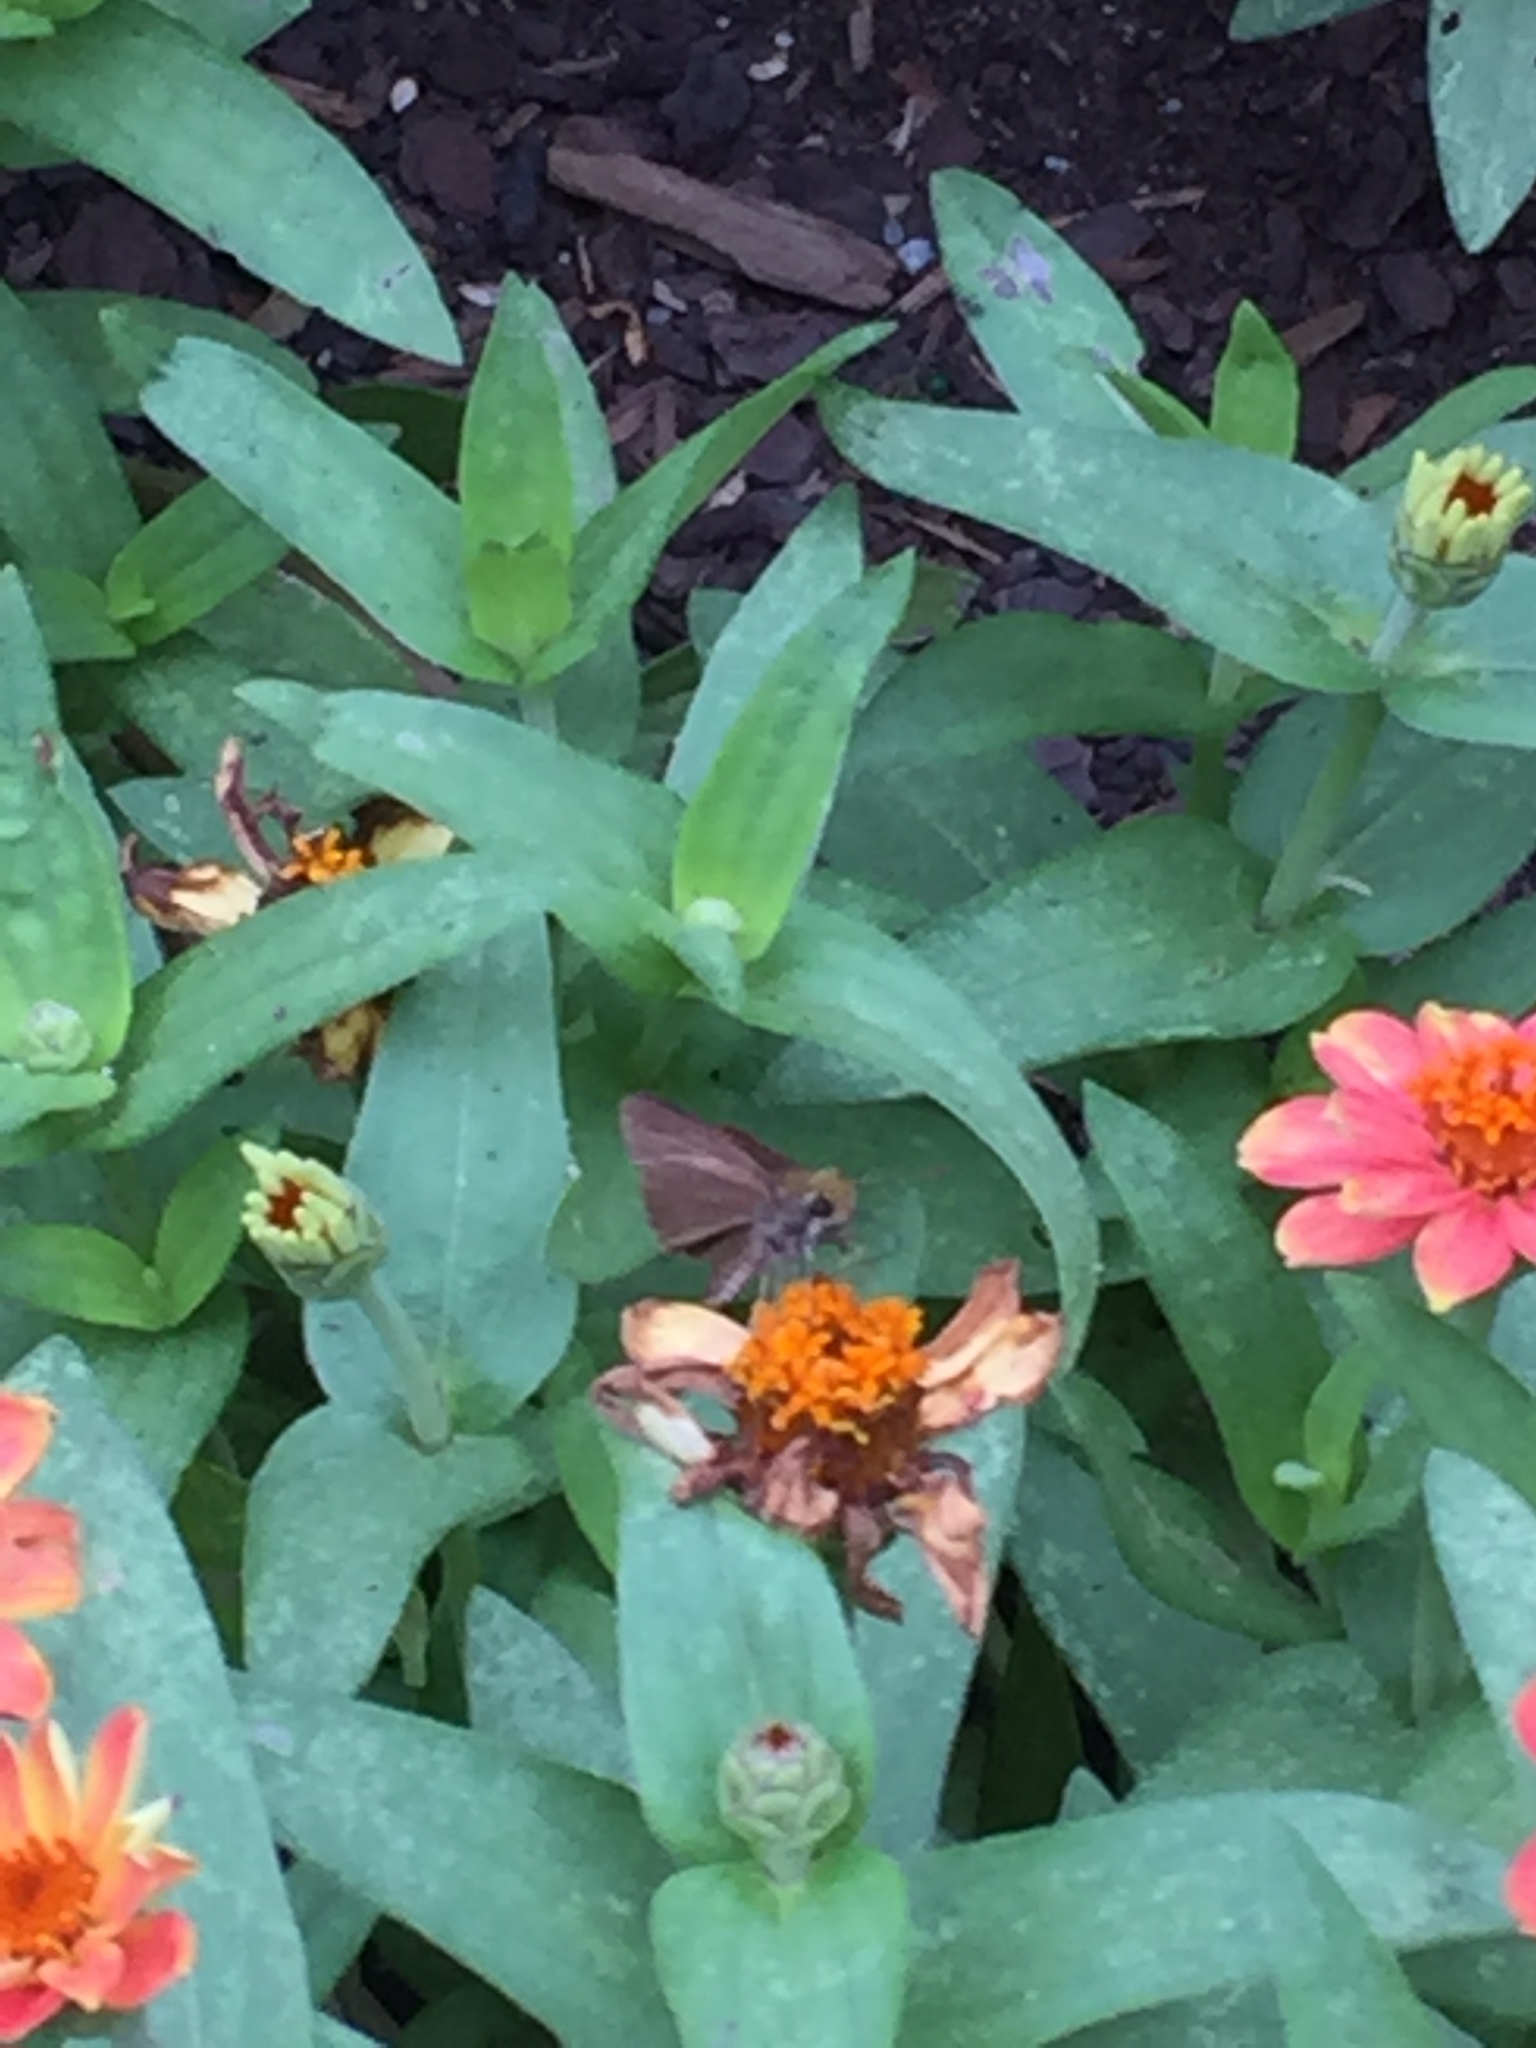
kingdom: Animalia
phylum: Arthropoda
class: Insecta
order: Lepidoptera
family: Hesperiidae
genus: Euphyes
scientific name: Euphyes vestris
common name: Dun skipper
